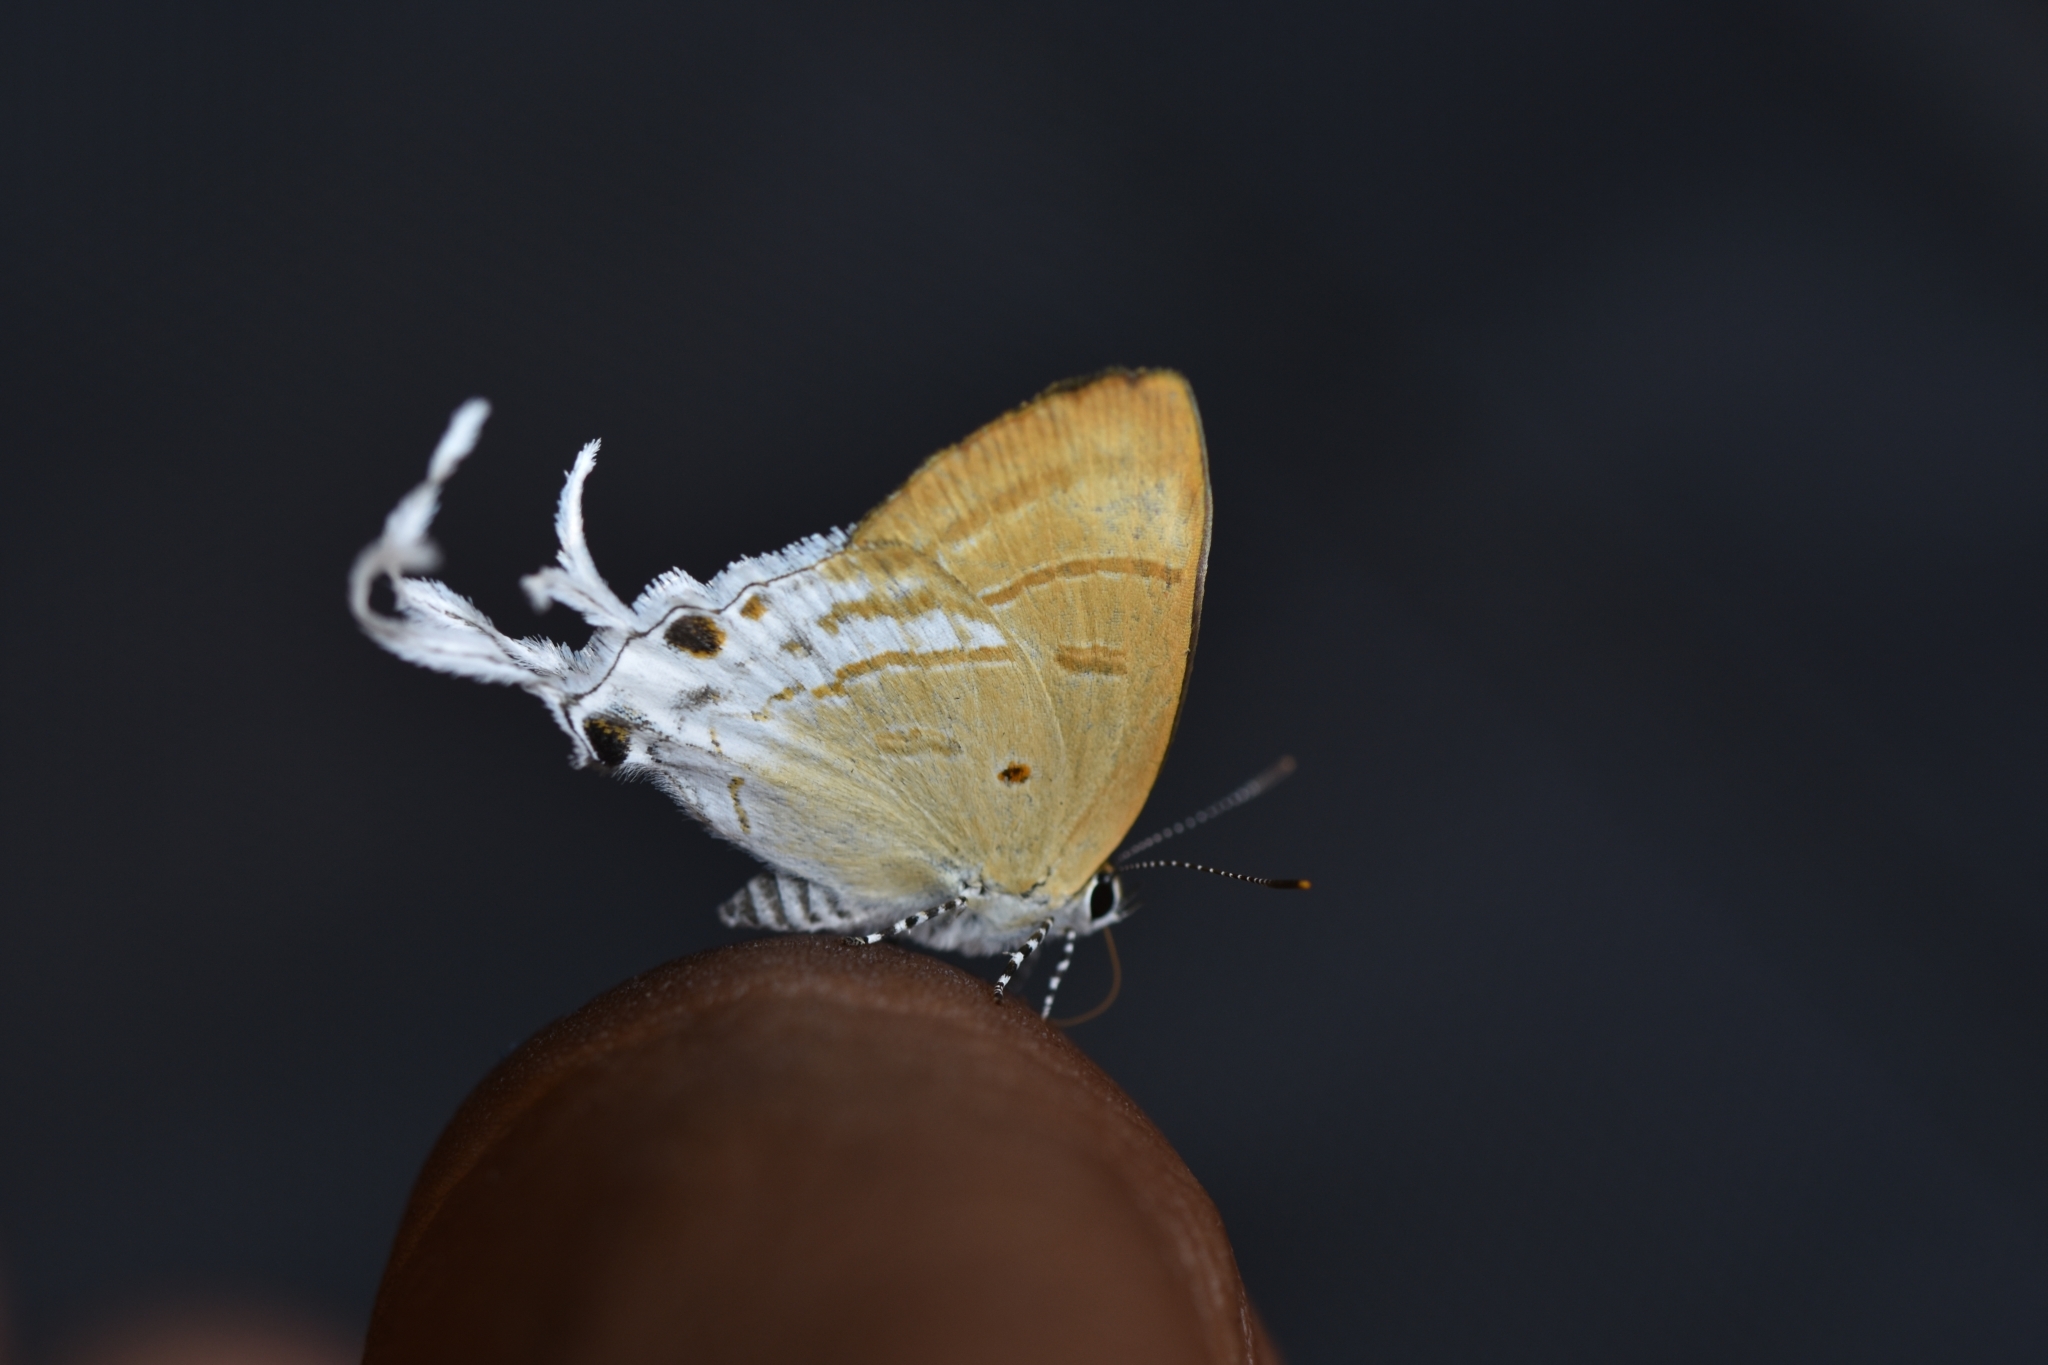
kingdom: Animalia
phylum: Arthropoda
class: Insecta
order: Lepidoptera
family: Lycaenidae
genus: Zeltus
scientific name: Zeltus amasa
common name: Fluffy tit
